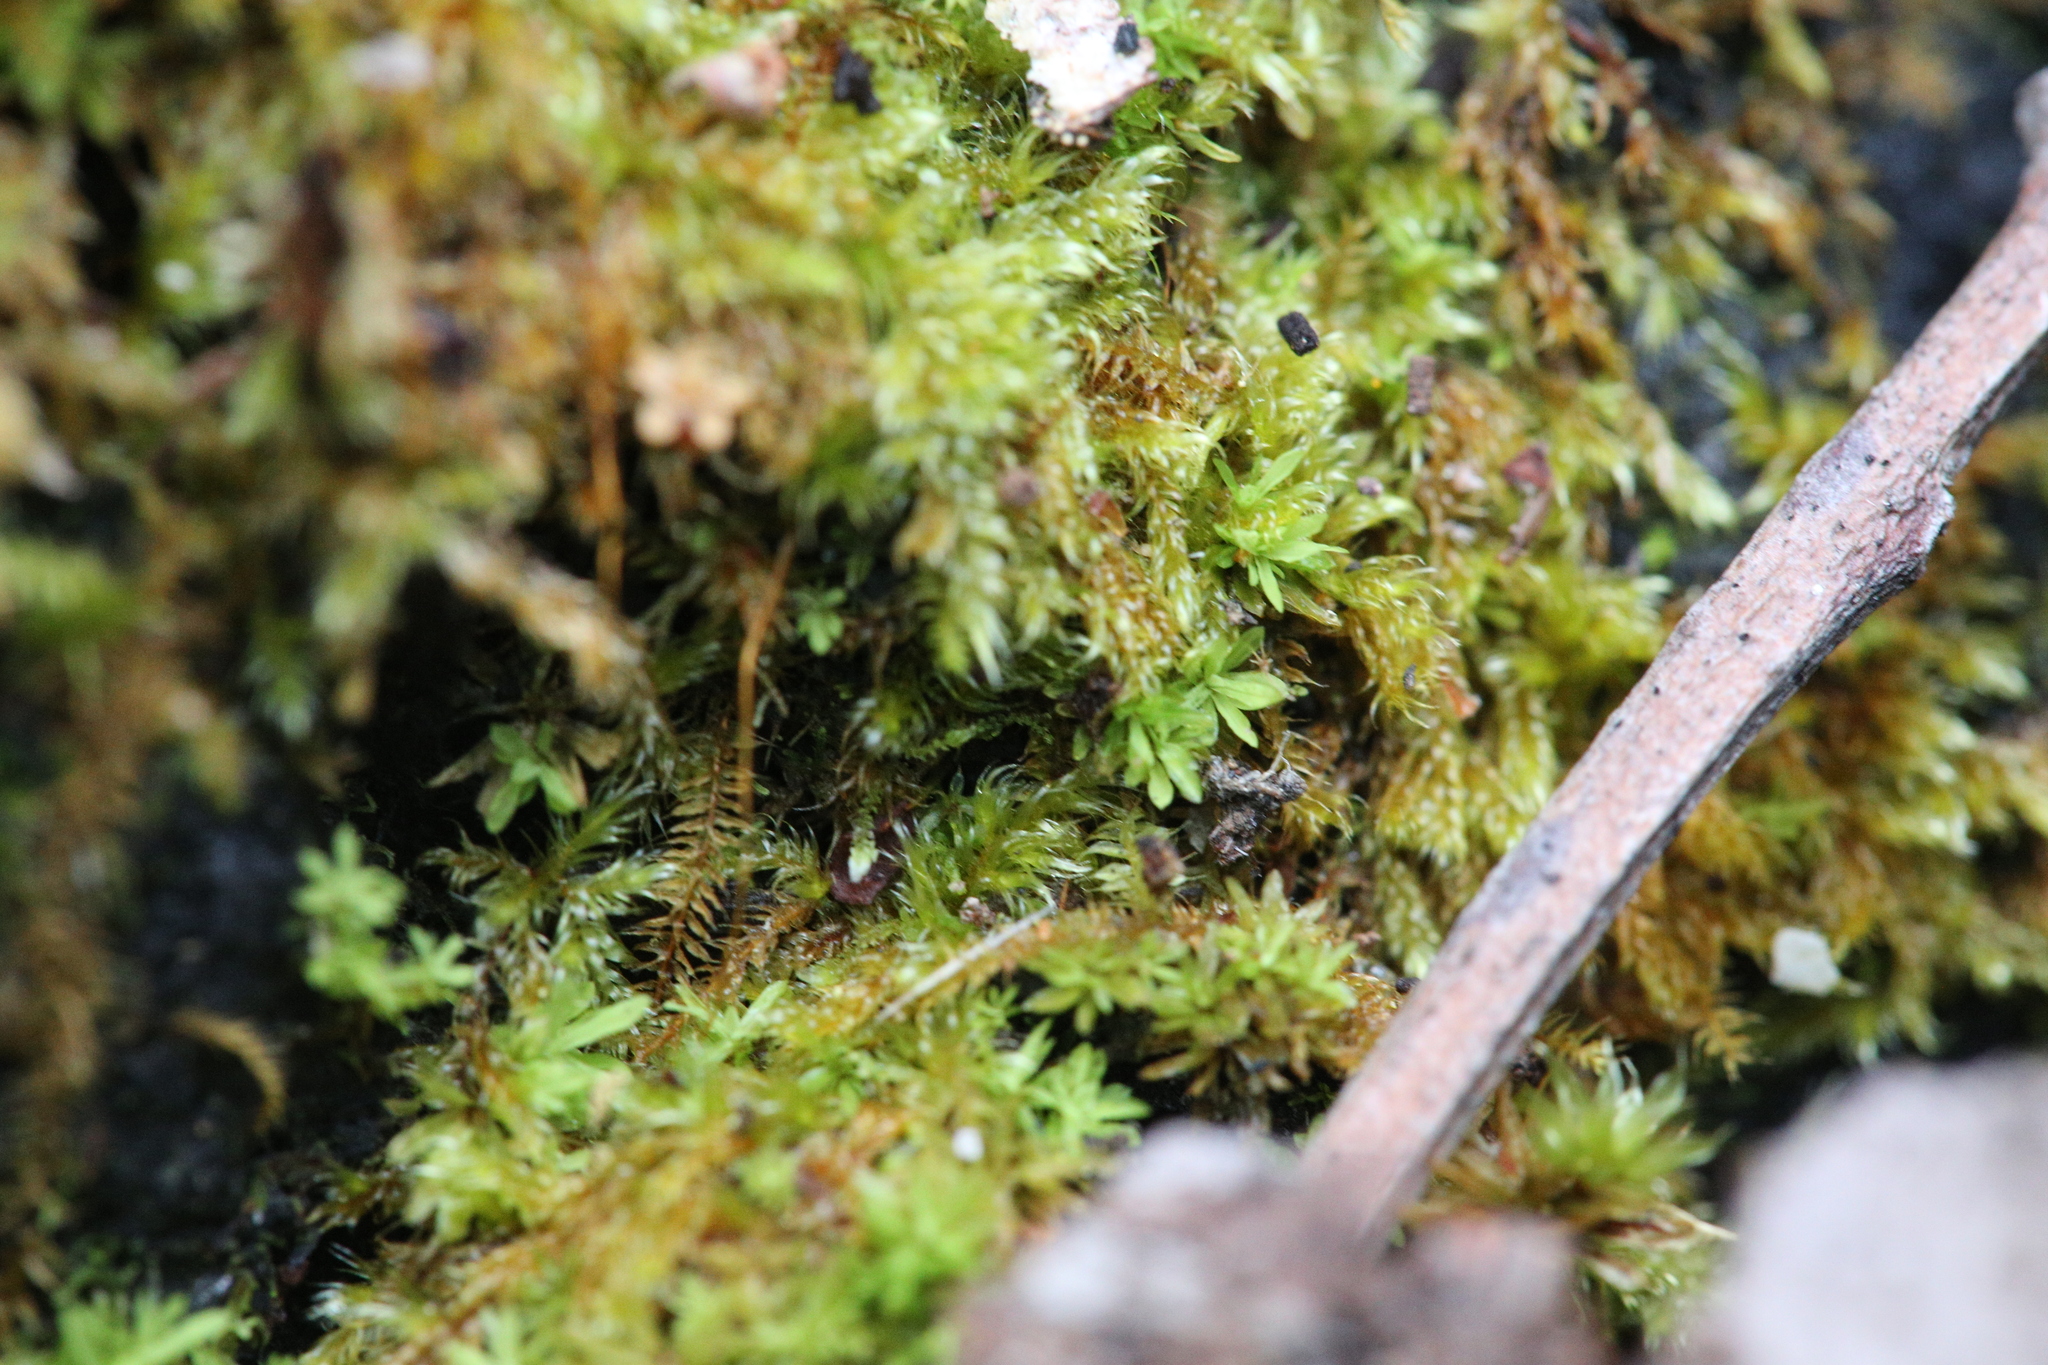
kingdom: Plantae
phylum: Bryophyta
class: Bryopsida
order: Pottiales
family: Pottiaceae
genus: Calymperastrum
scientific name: Calymperastrum latifolium
